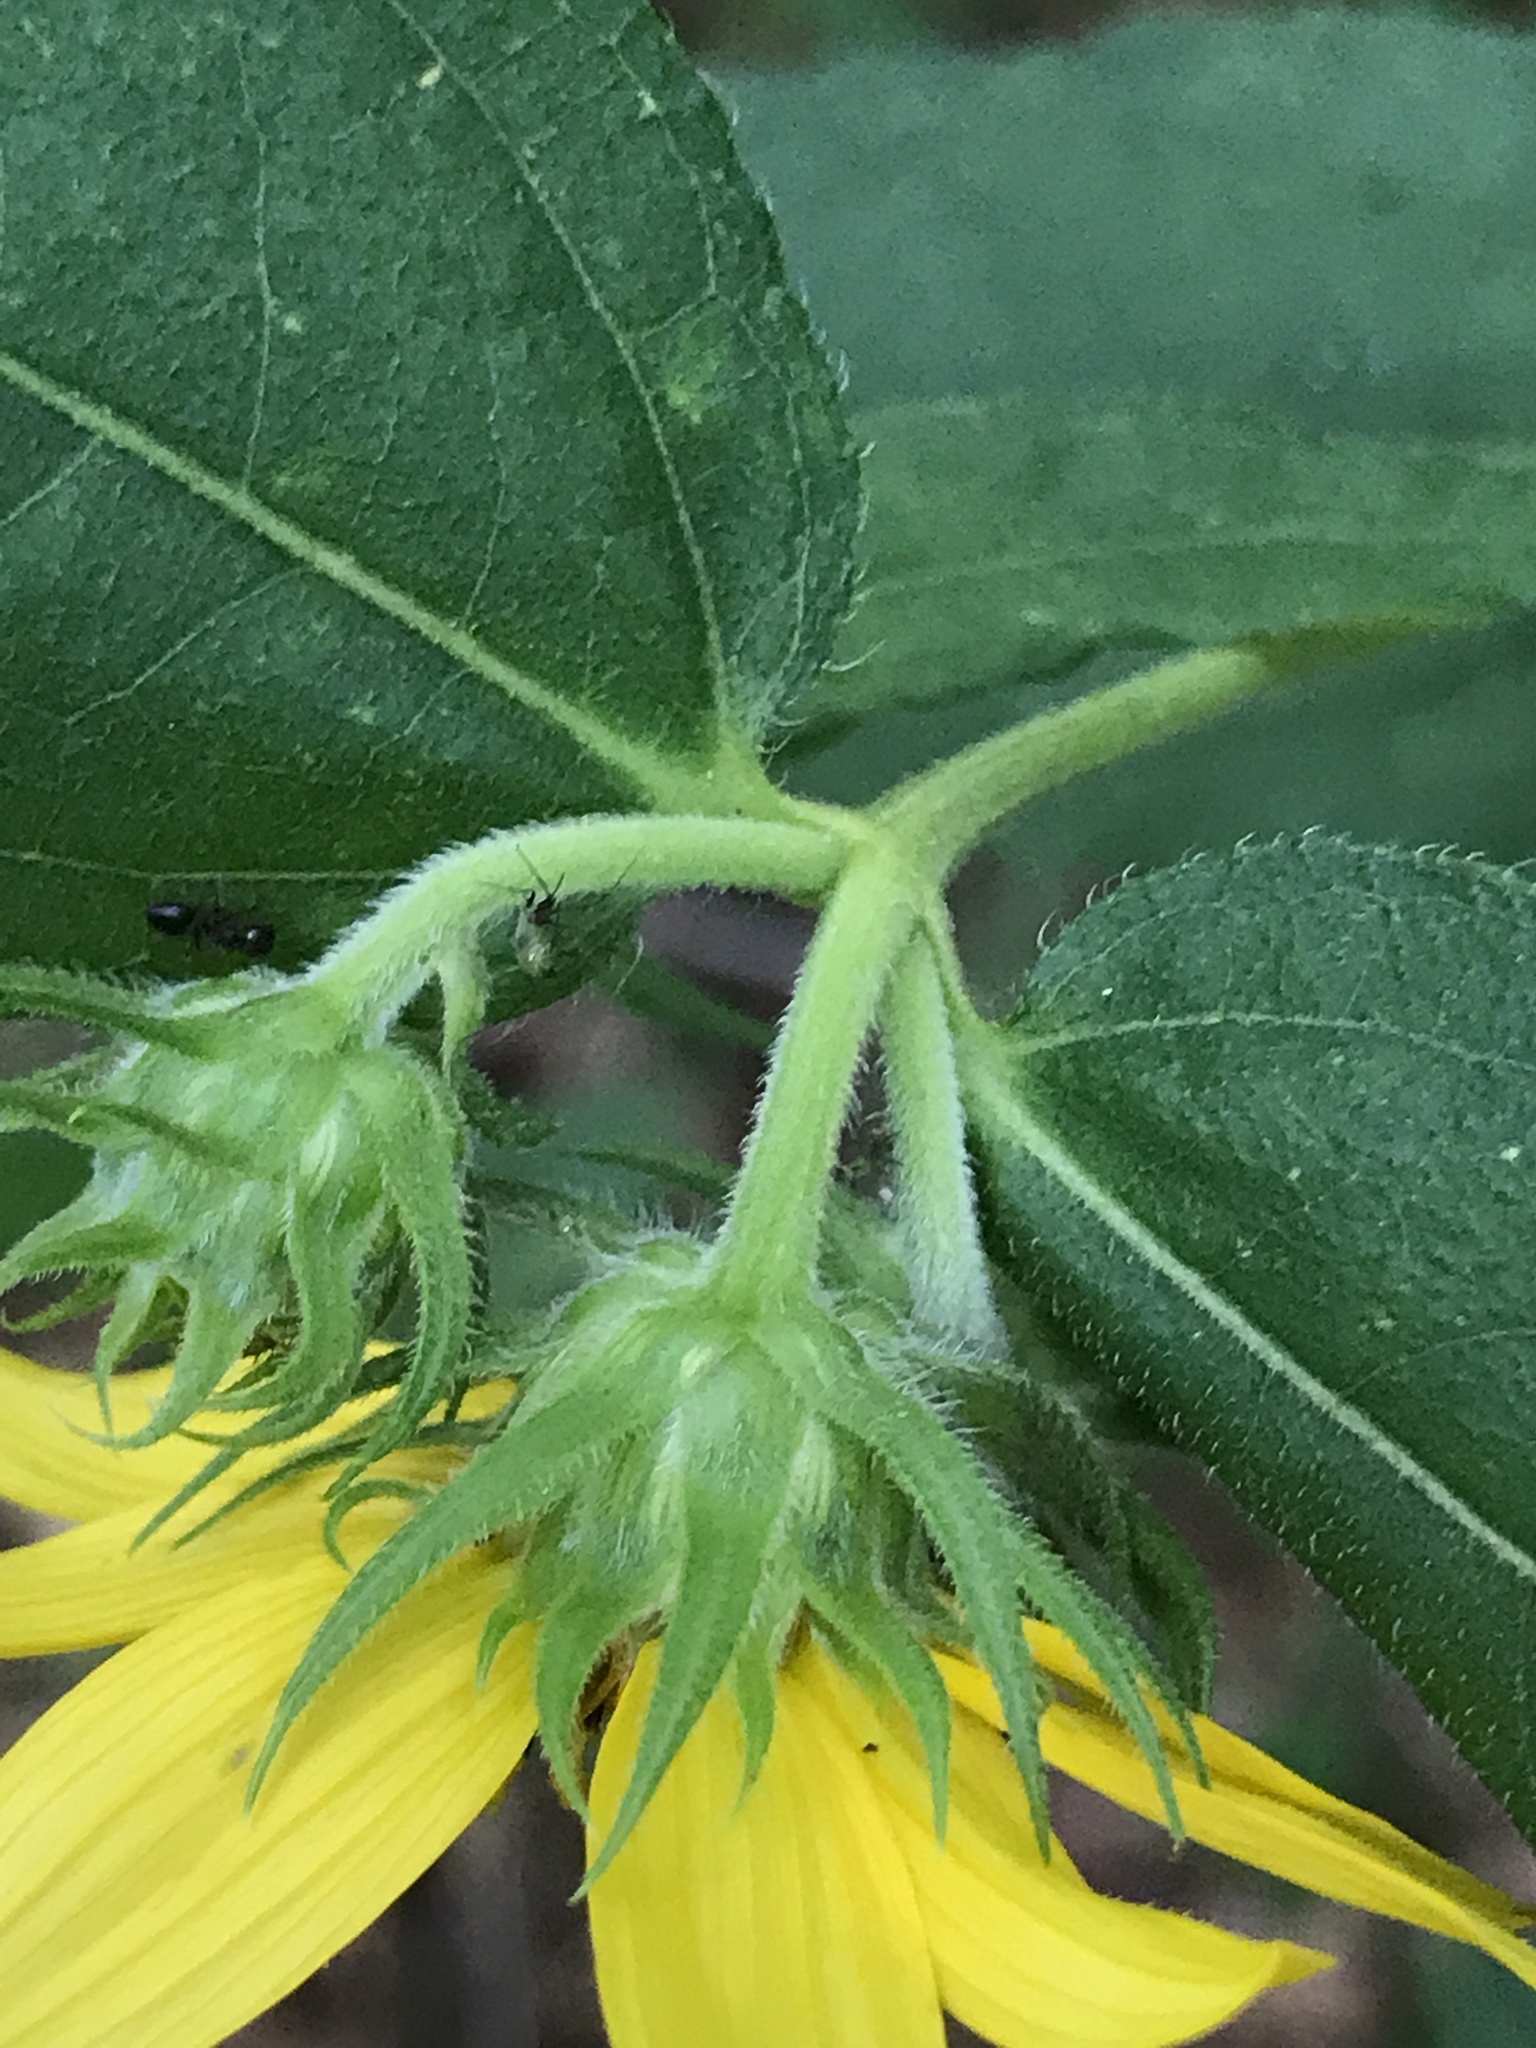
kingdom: Plantae
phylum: Tracheophyta
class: Magnoliopsida
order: Asterales
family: Asteraceae
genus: Helianthus
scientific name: Helianthus hirsutus
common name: Hairy sunflower
